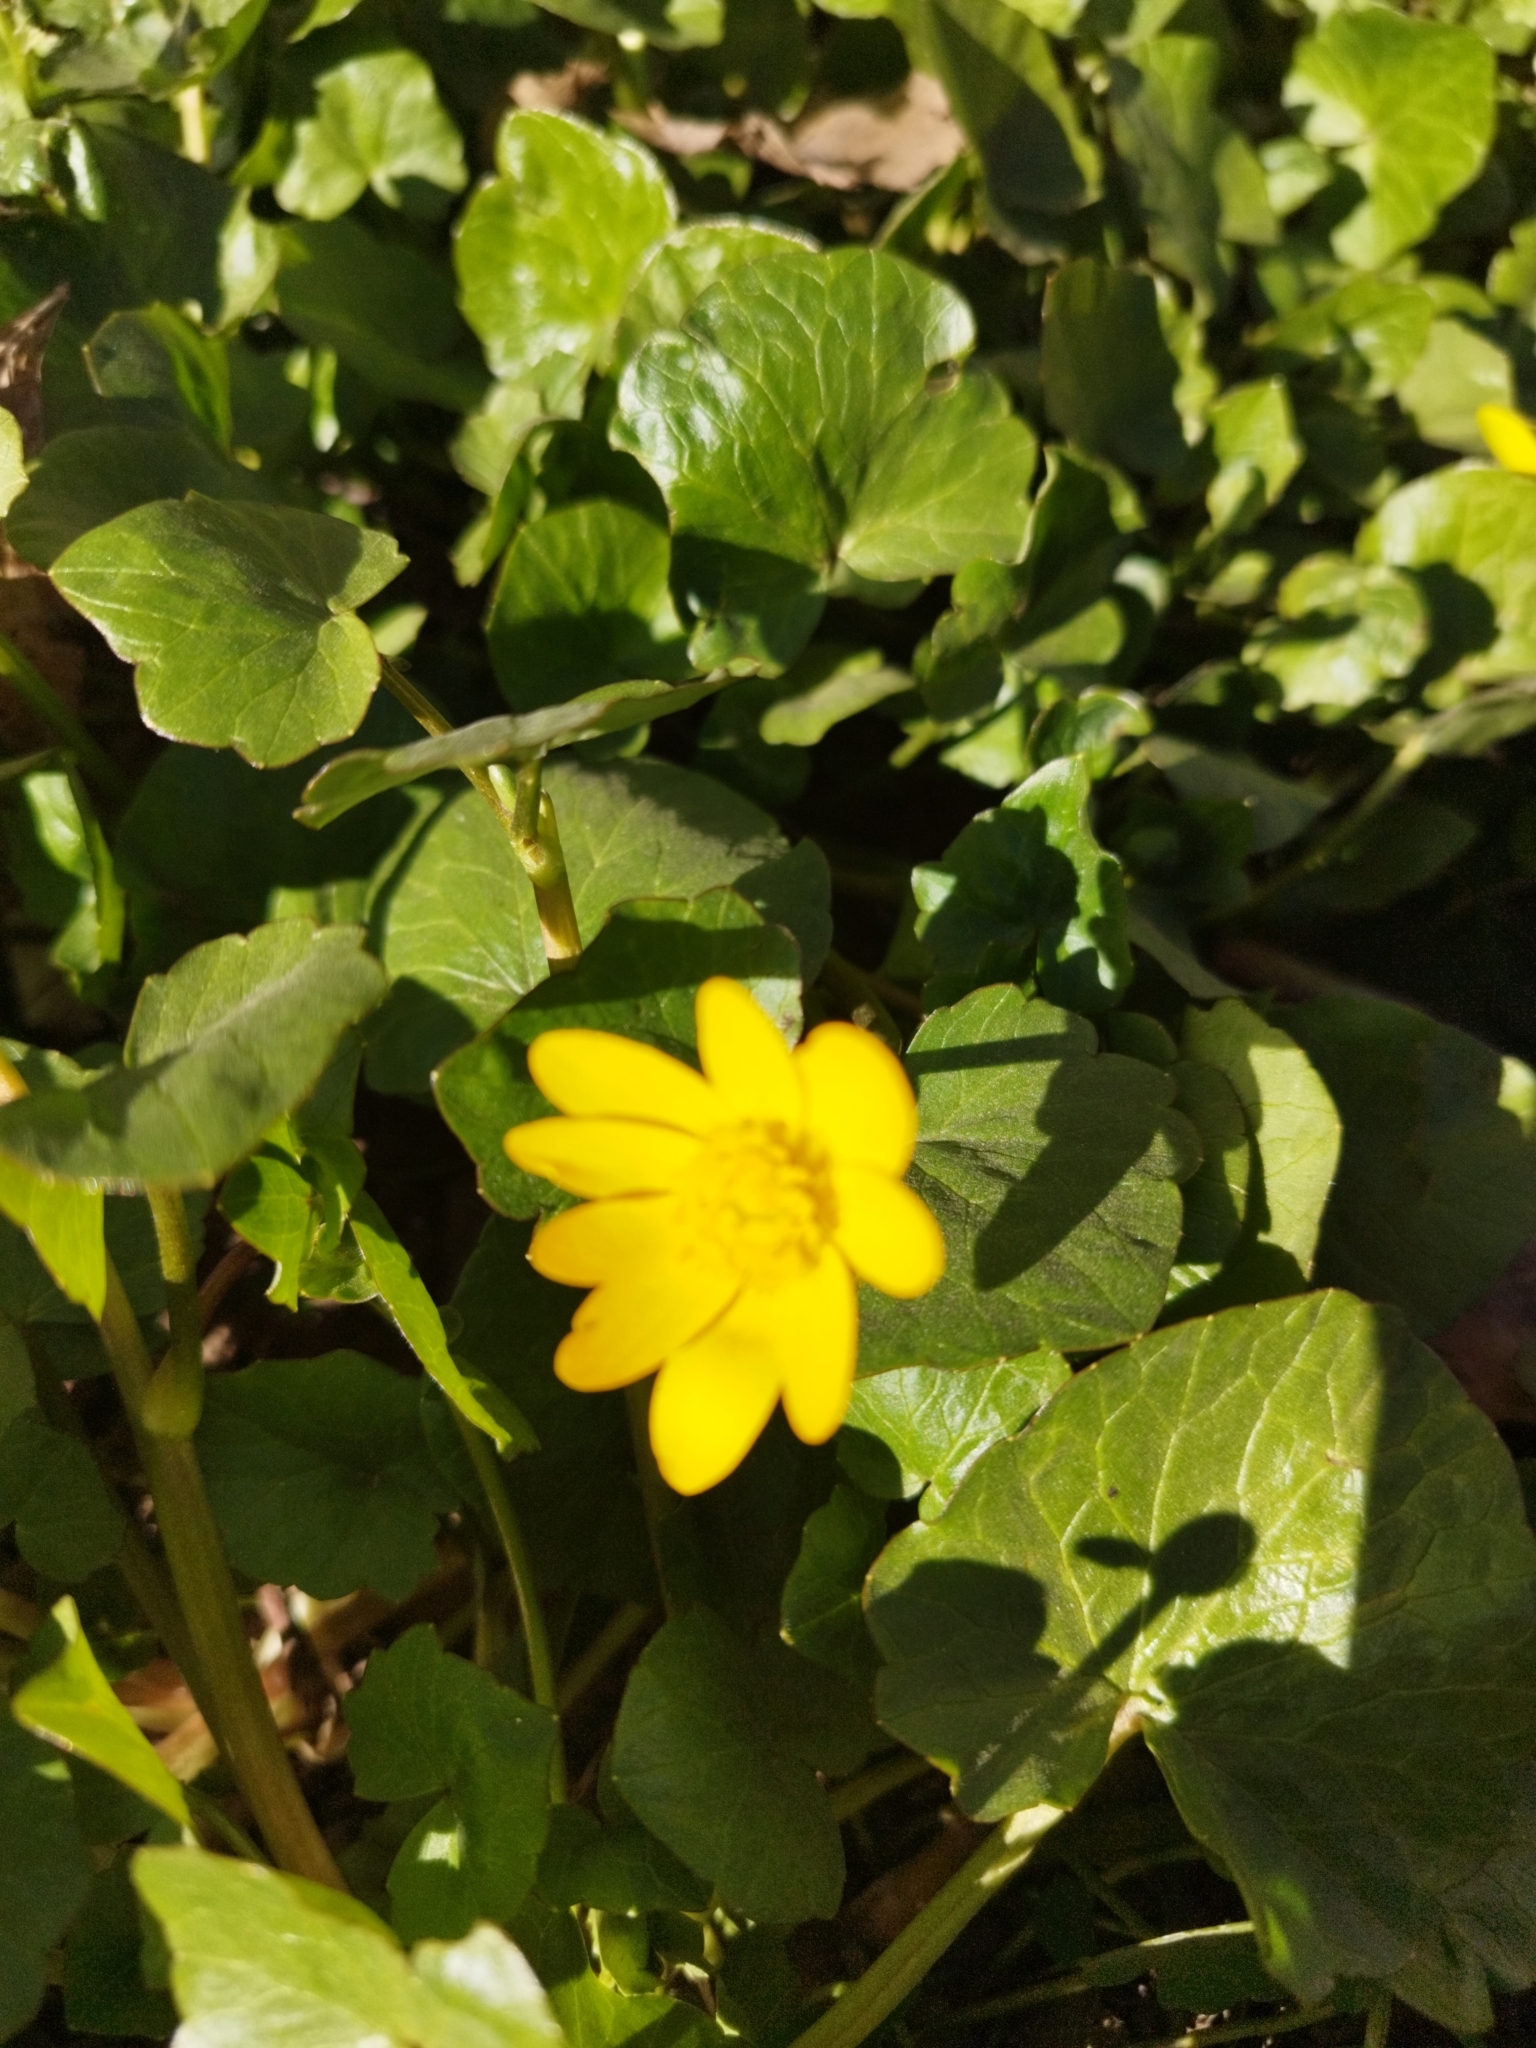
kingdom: Plantae
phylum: Tracheophyta
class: Magnoliopsida
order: Ranunculales
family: Ranunculaceae
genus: Ficaria
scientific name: Ficaria verna
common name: Lesser celandine
